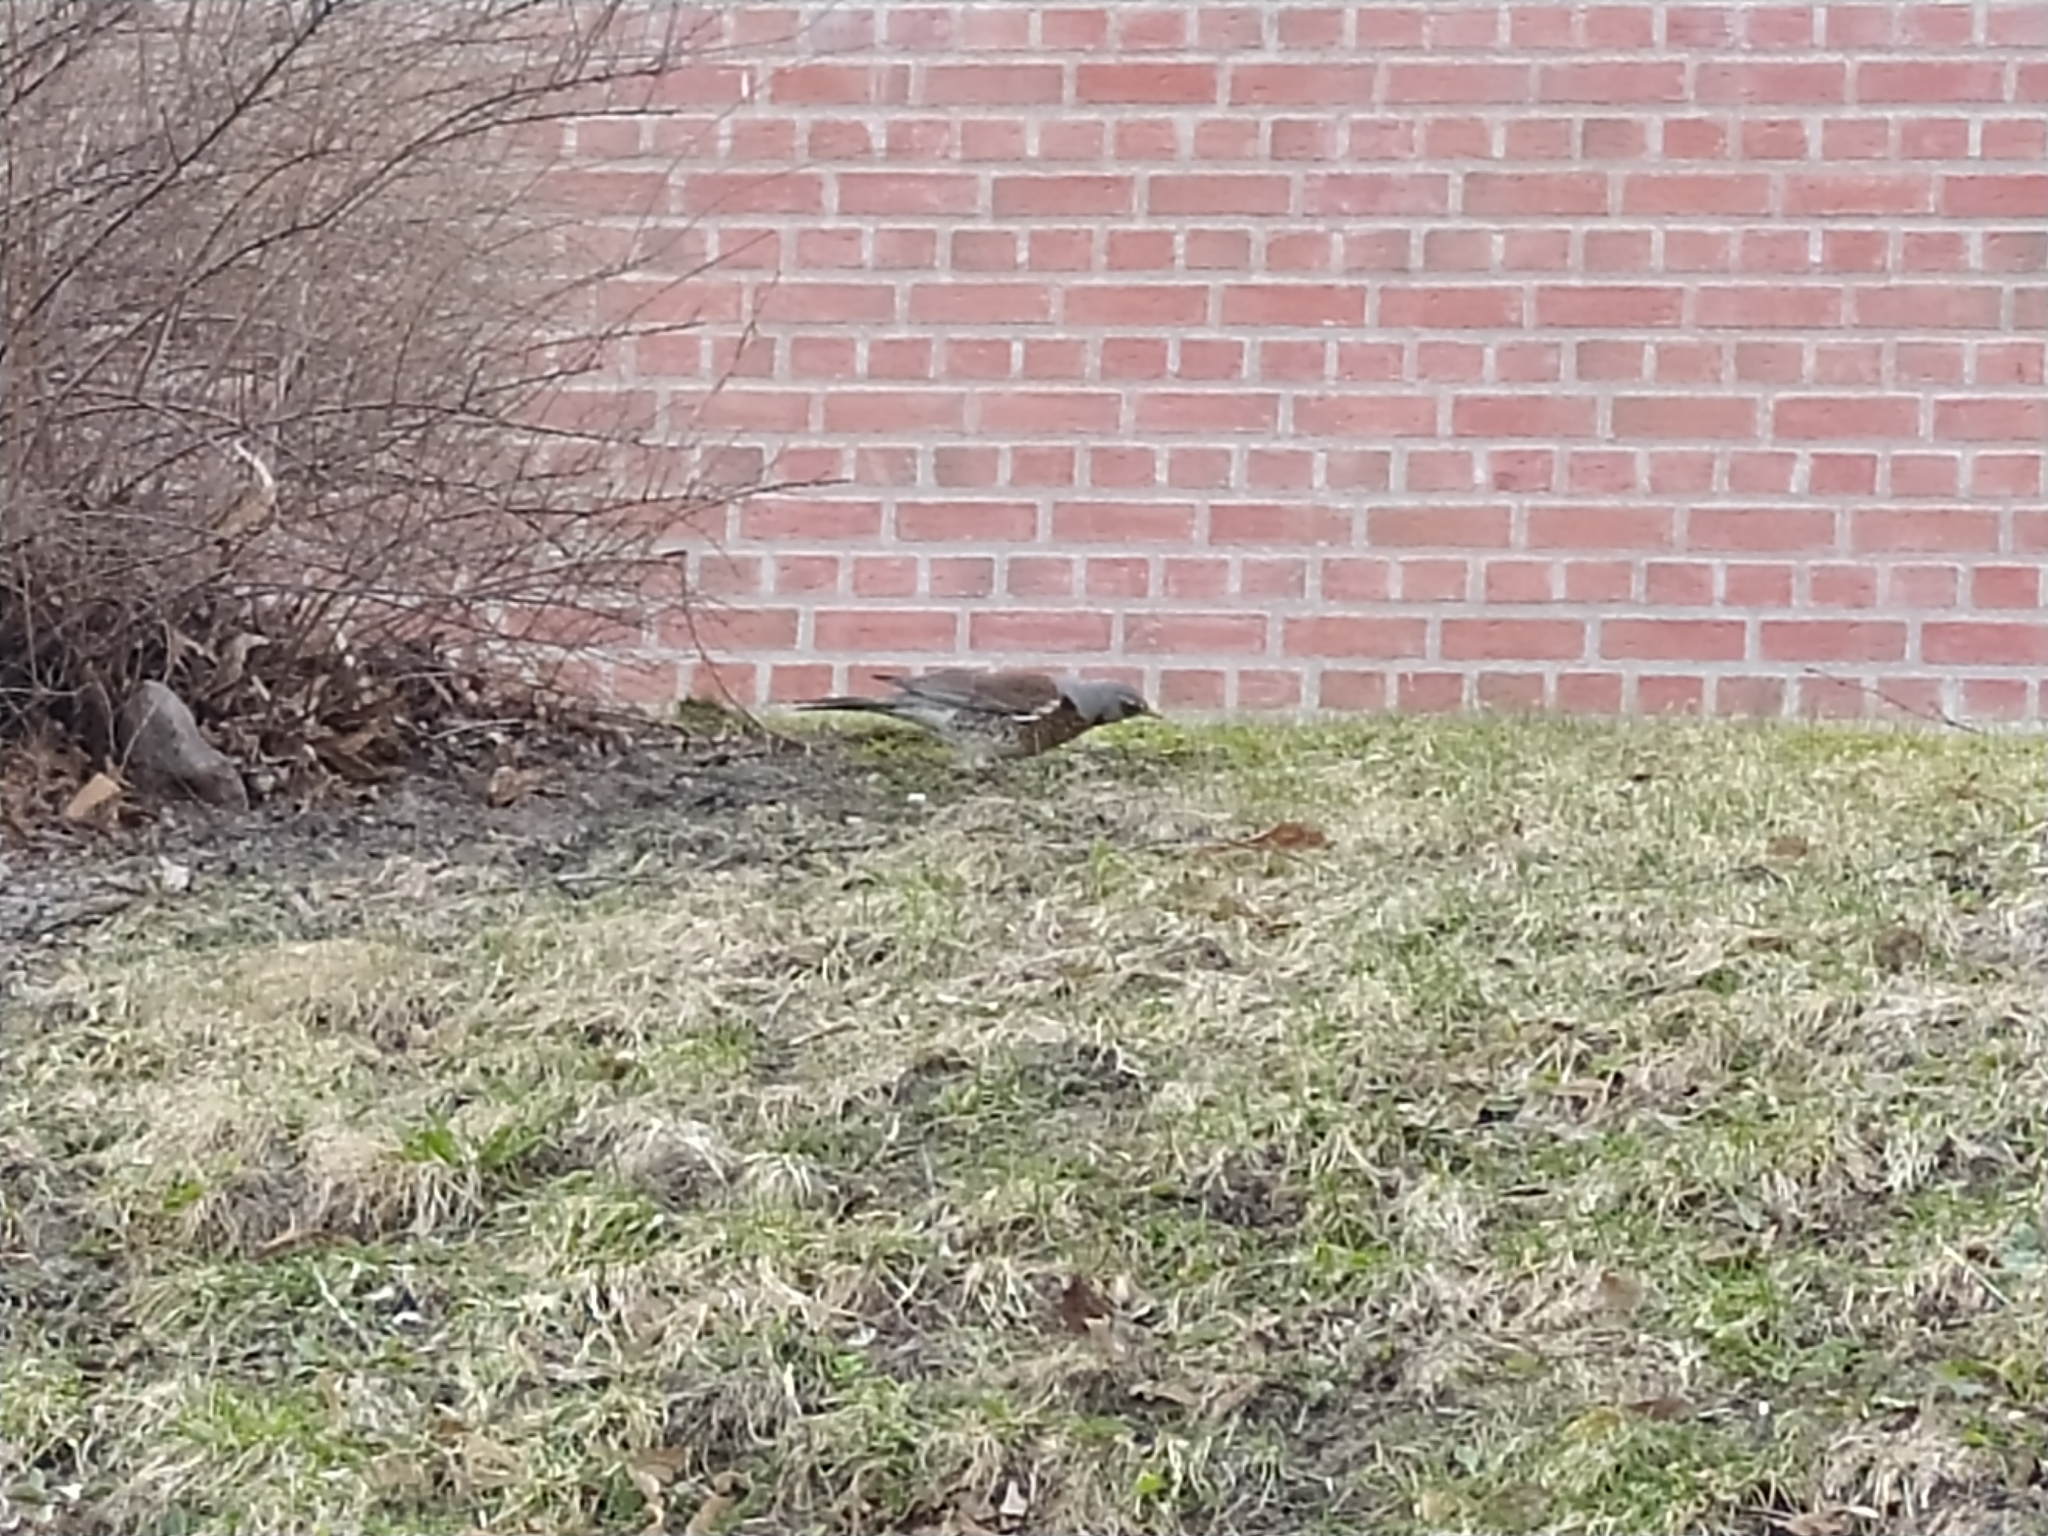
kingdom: Animalia
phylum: Chordata
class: Aves
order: Passeriformes
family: Turdidae
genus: Turdus
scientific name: Turdus pilaris
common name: Fieldfare
